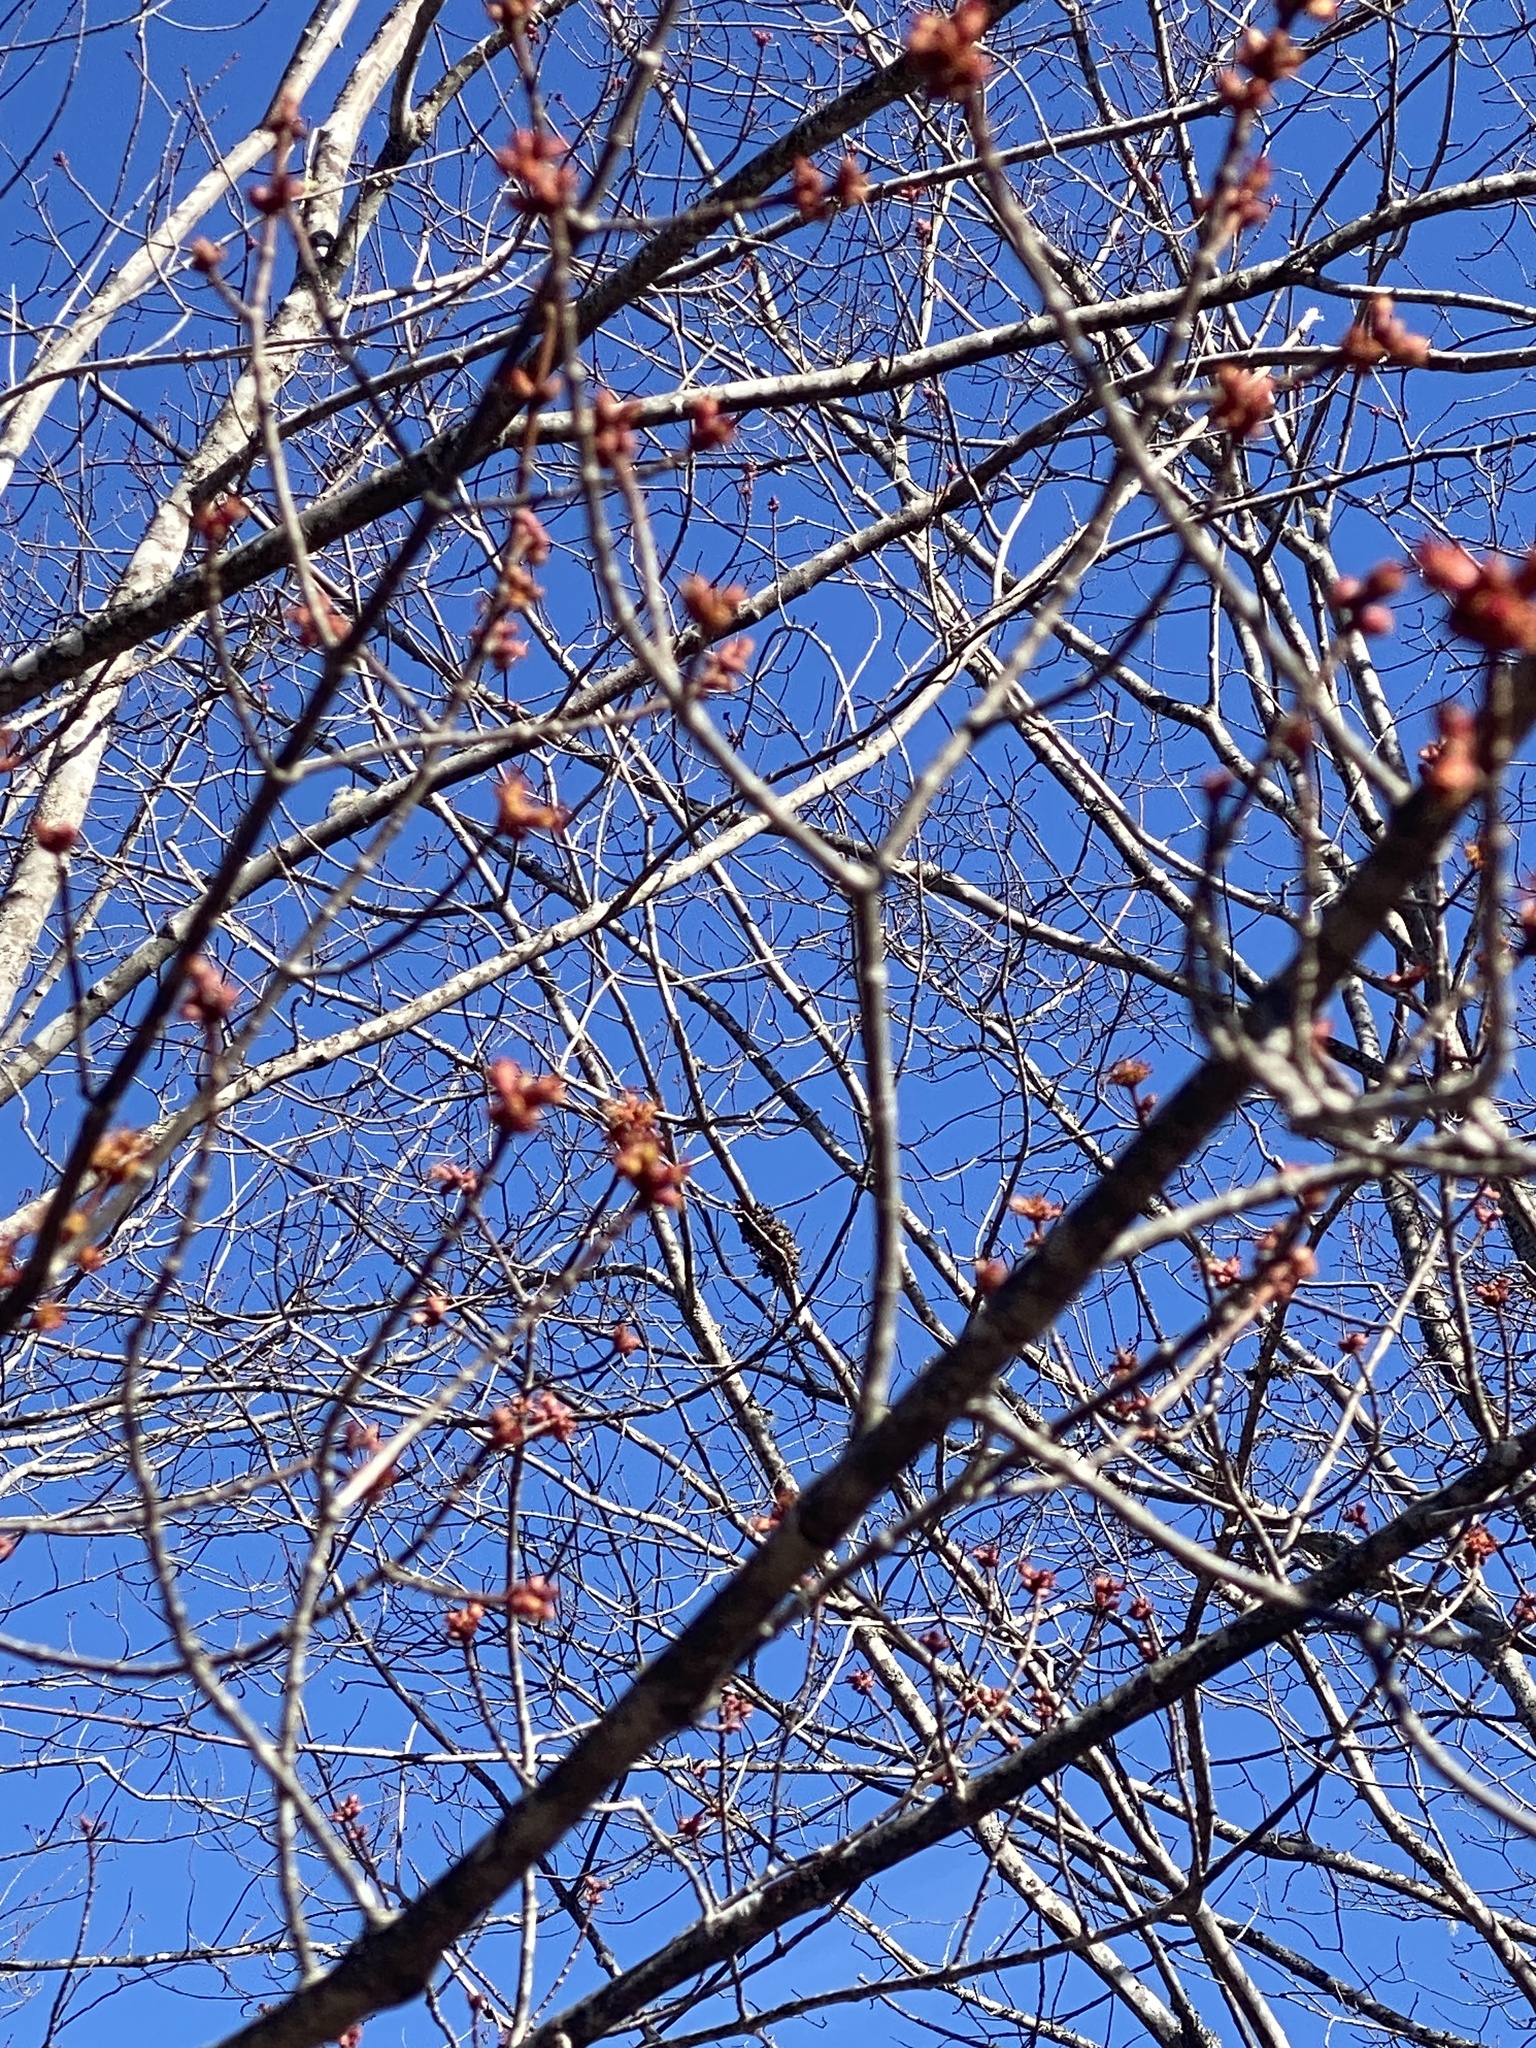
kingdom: Plantae
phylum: Tracheophyta
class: Magnoliopsida
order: Sapindales
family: Sapindaceae
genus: Acer
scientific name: Acer rubrum
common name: Red maple
